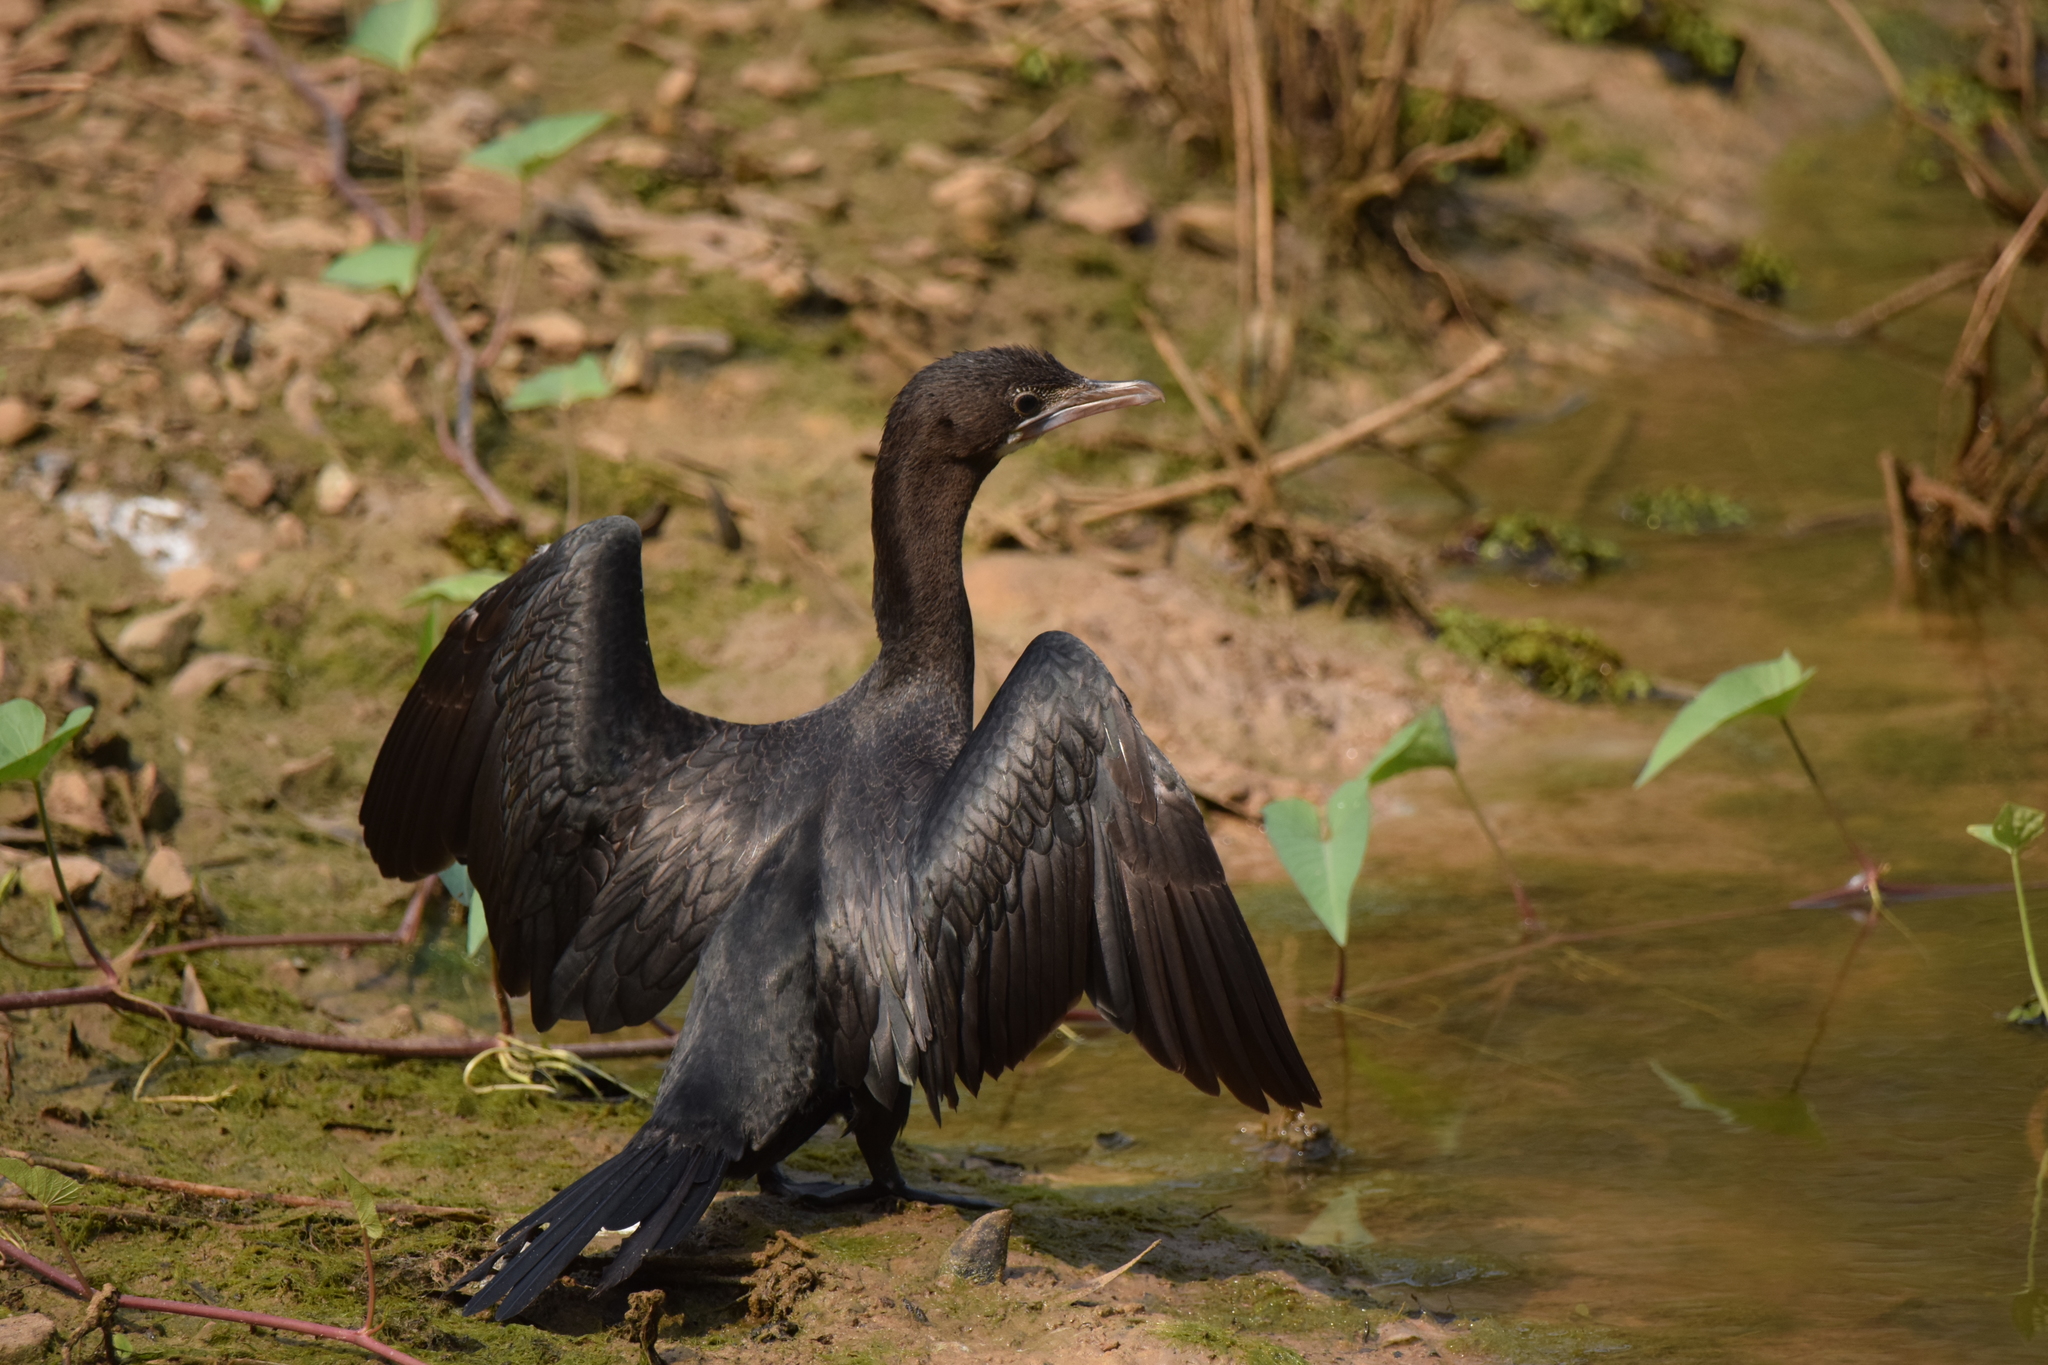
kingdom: Animalia
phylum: Chordata
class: Aves
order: Suliformes
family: Phalacrocoracidae
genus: Microcarbo
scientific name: Microcarbo niger
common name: Little cormorant
